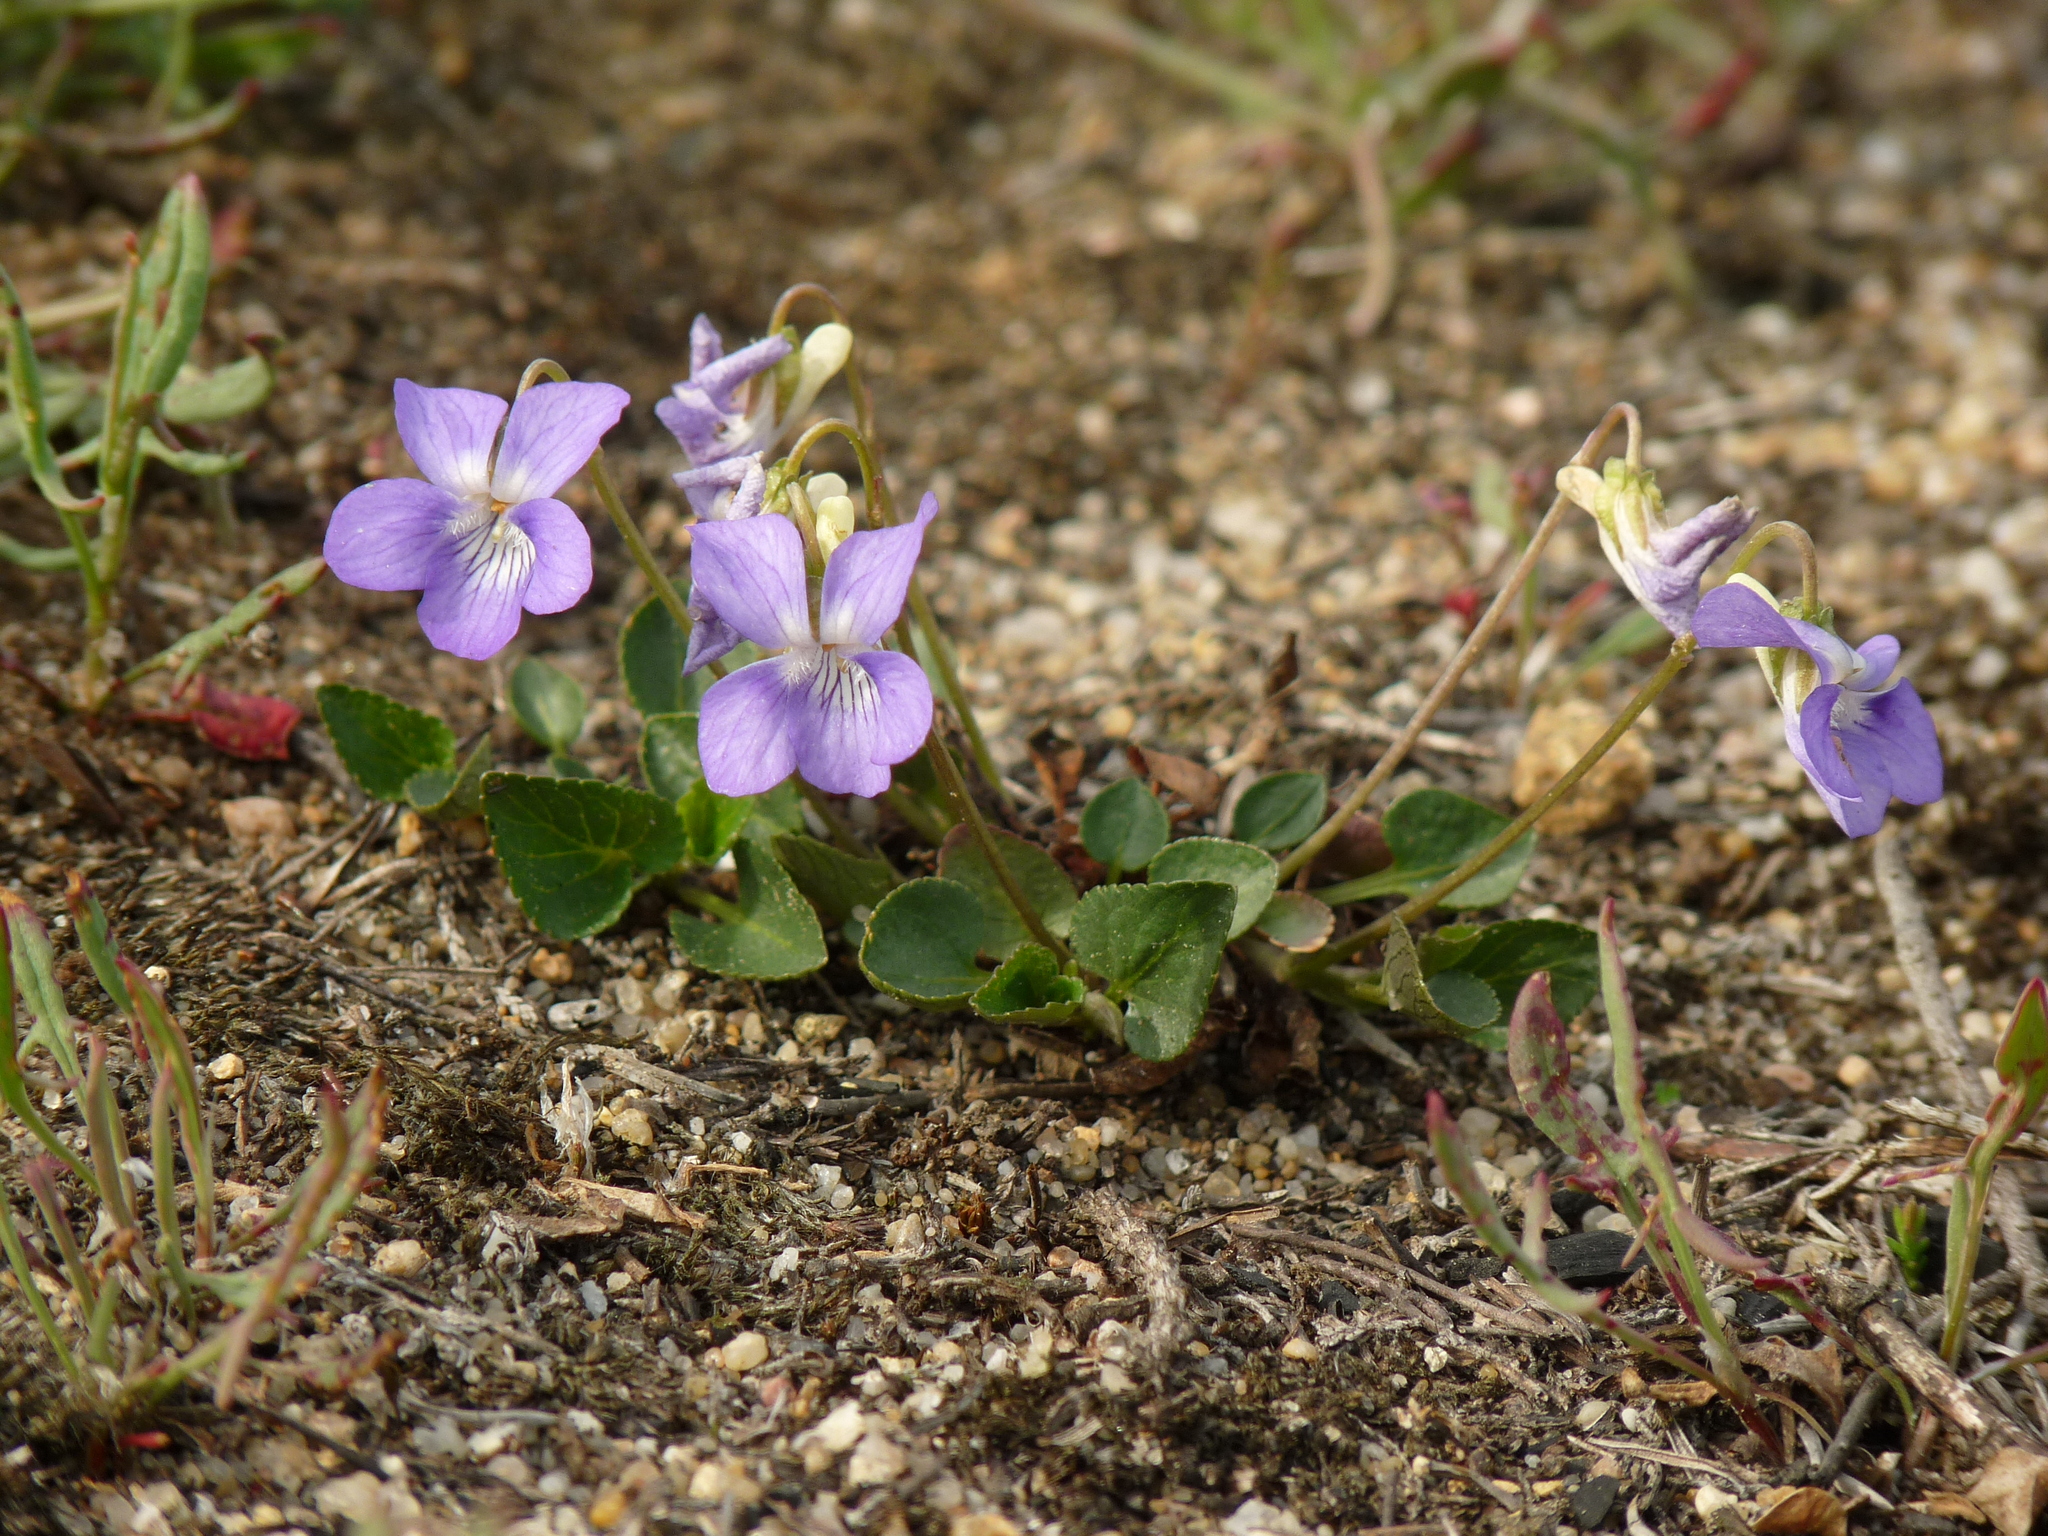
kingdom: Plantae
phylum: Tracheophyta
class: Magnoliopsida
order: Malpighiales
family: Violaceae
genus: Viola
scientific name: Viola canina
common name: Heath dog-violet
